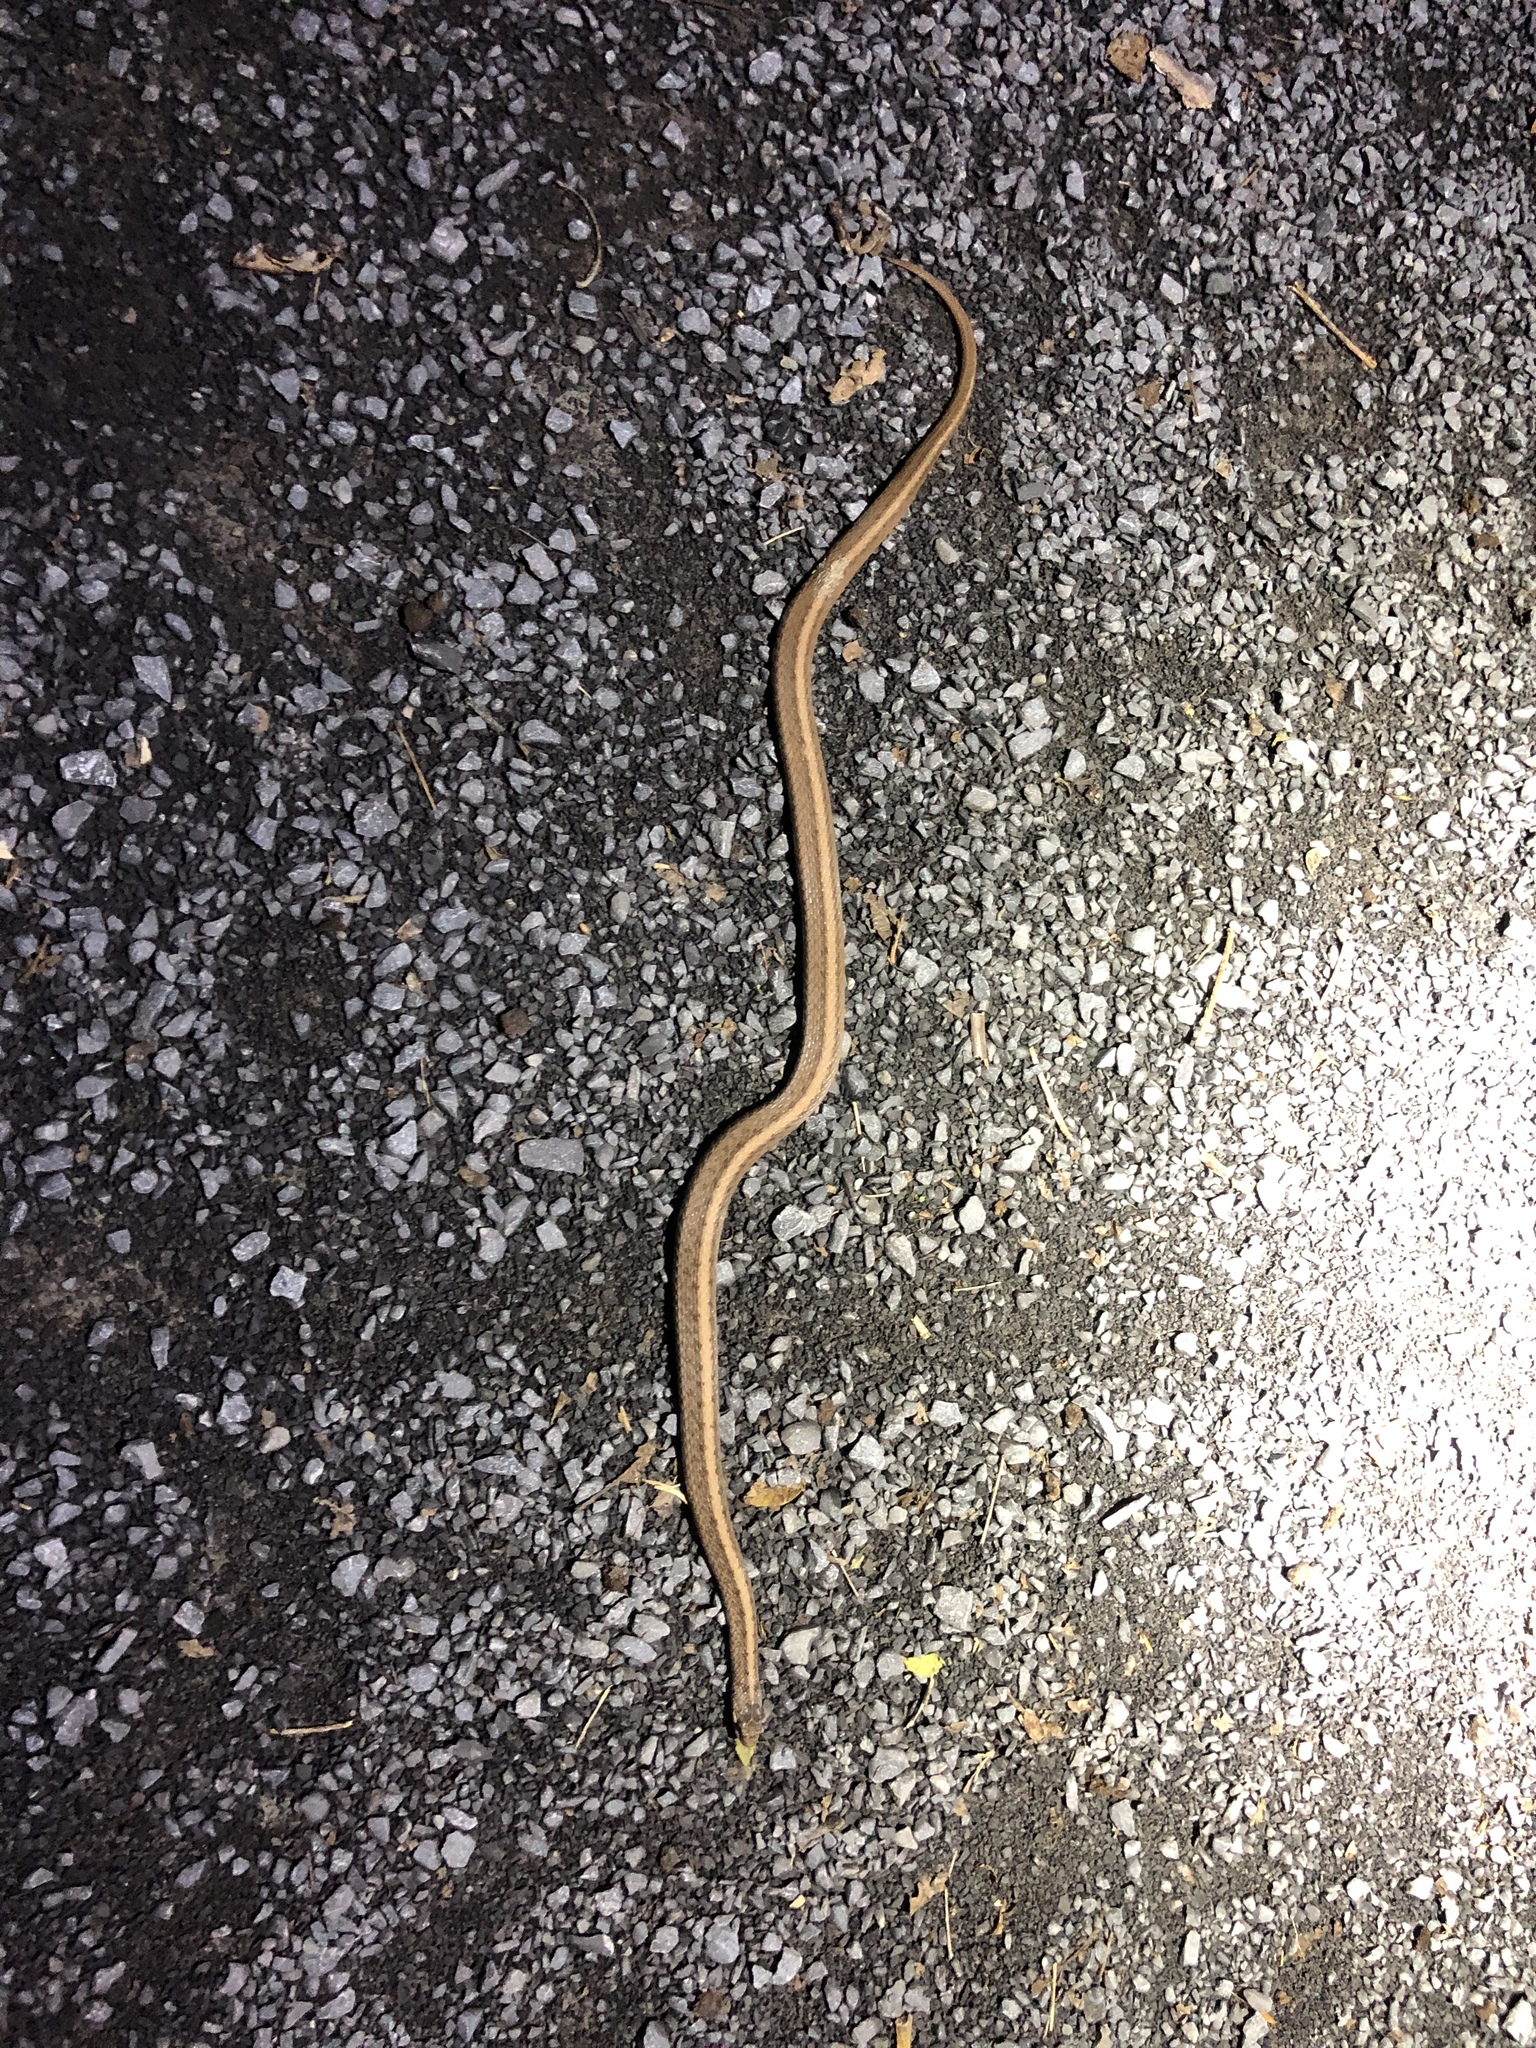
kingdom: Animalia
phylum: Chordata
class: Squamata
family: Colubridae
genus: Storeria
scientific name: Storeria dekayi
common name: (dekay’s) brown snake
